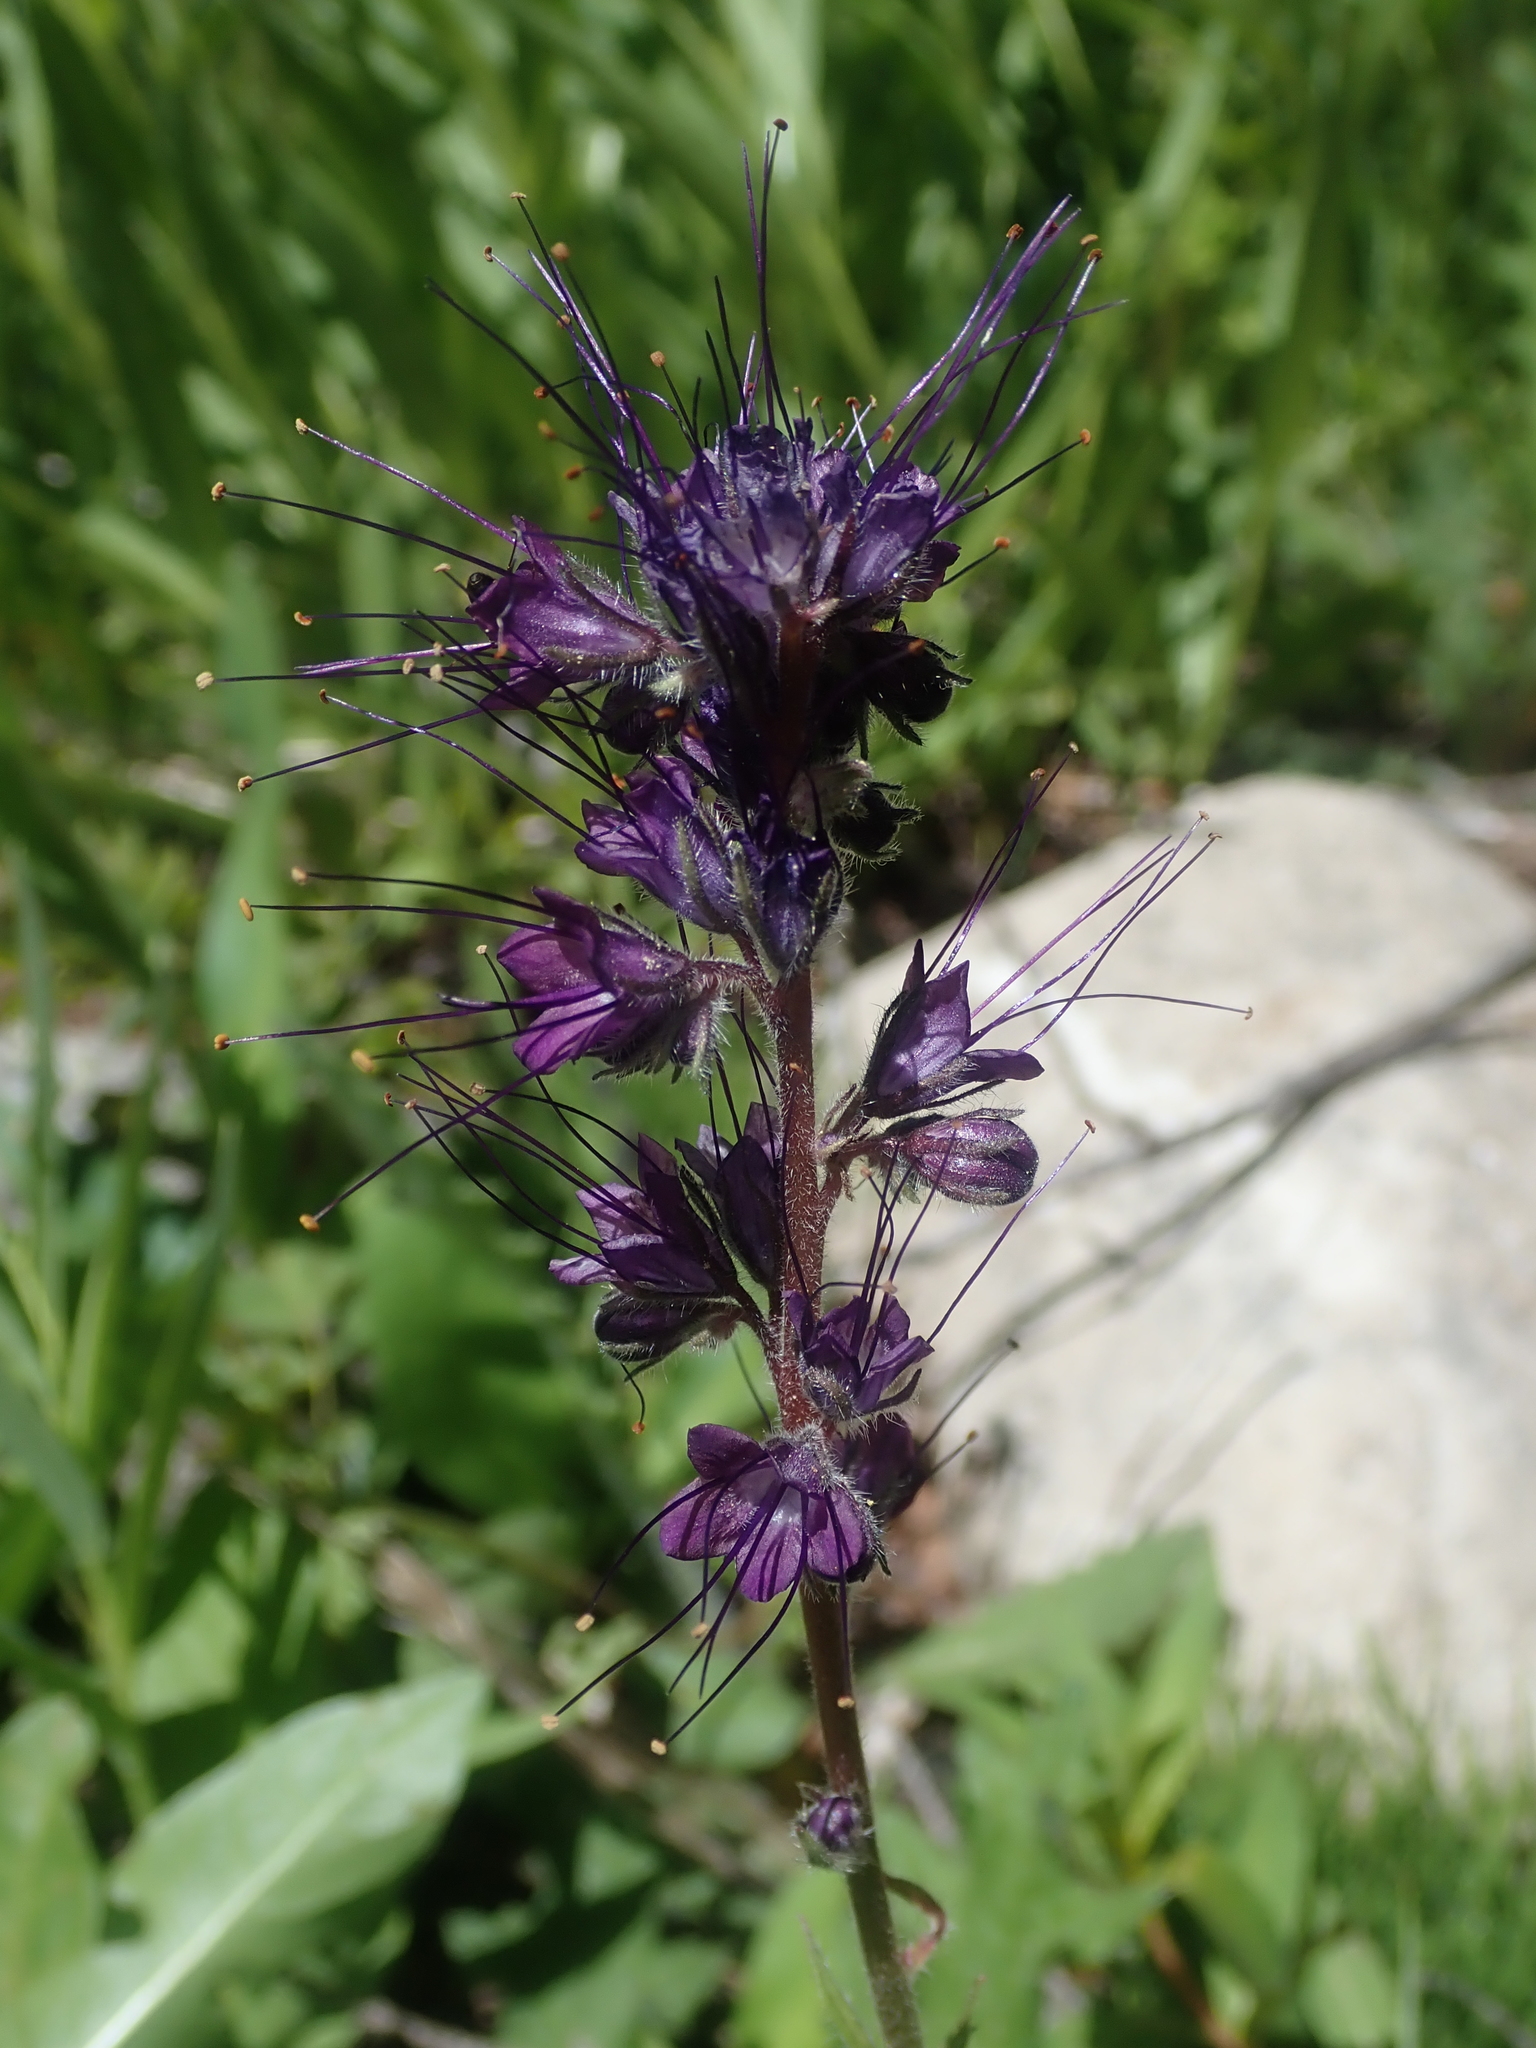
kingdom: Plantae
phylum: Tracheophyta
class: Magnoliopsida
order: Boraginales
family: Hydrophyllaceae
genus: Phacelia
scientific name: Phacelia sericea
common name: Silky phacelia
